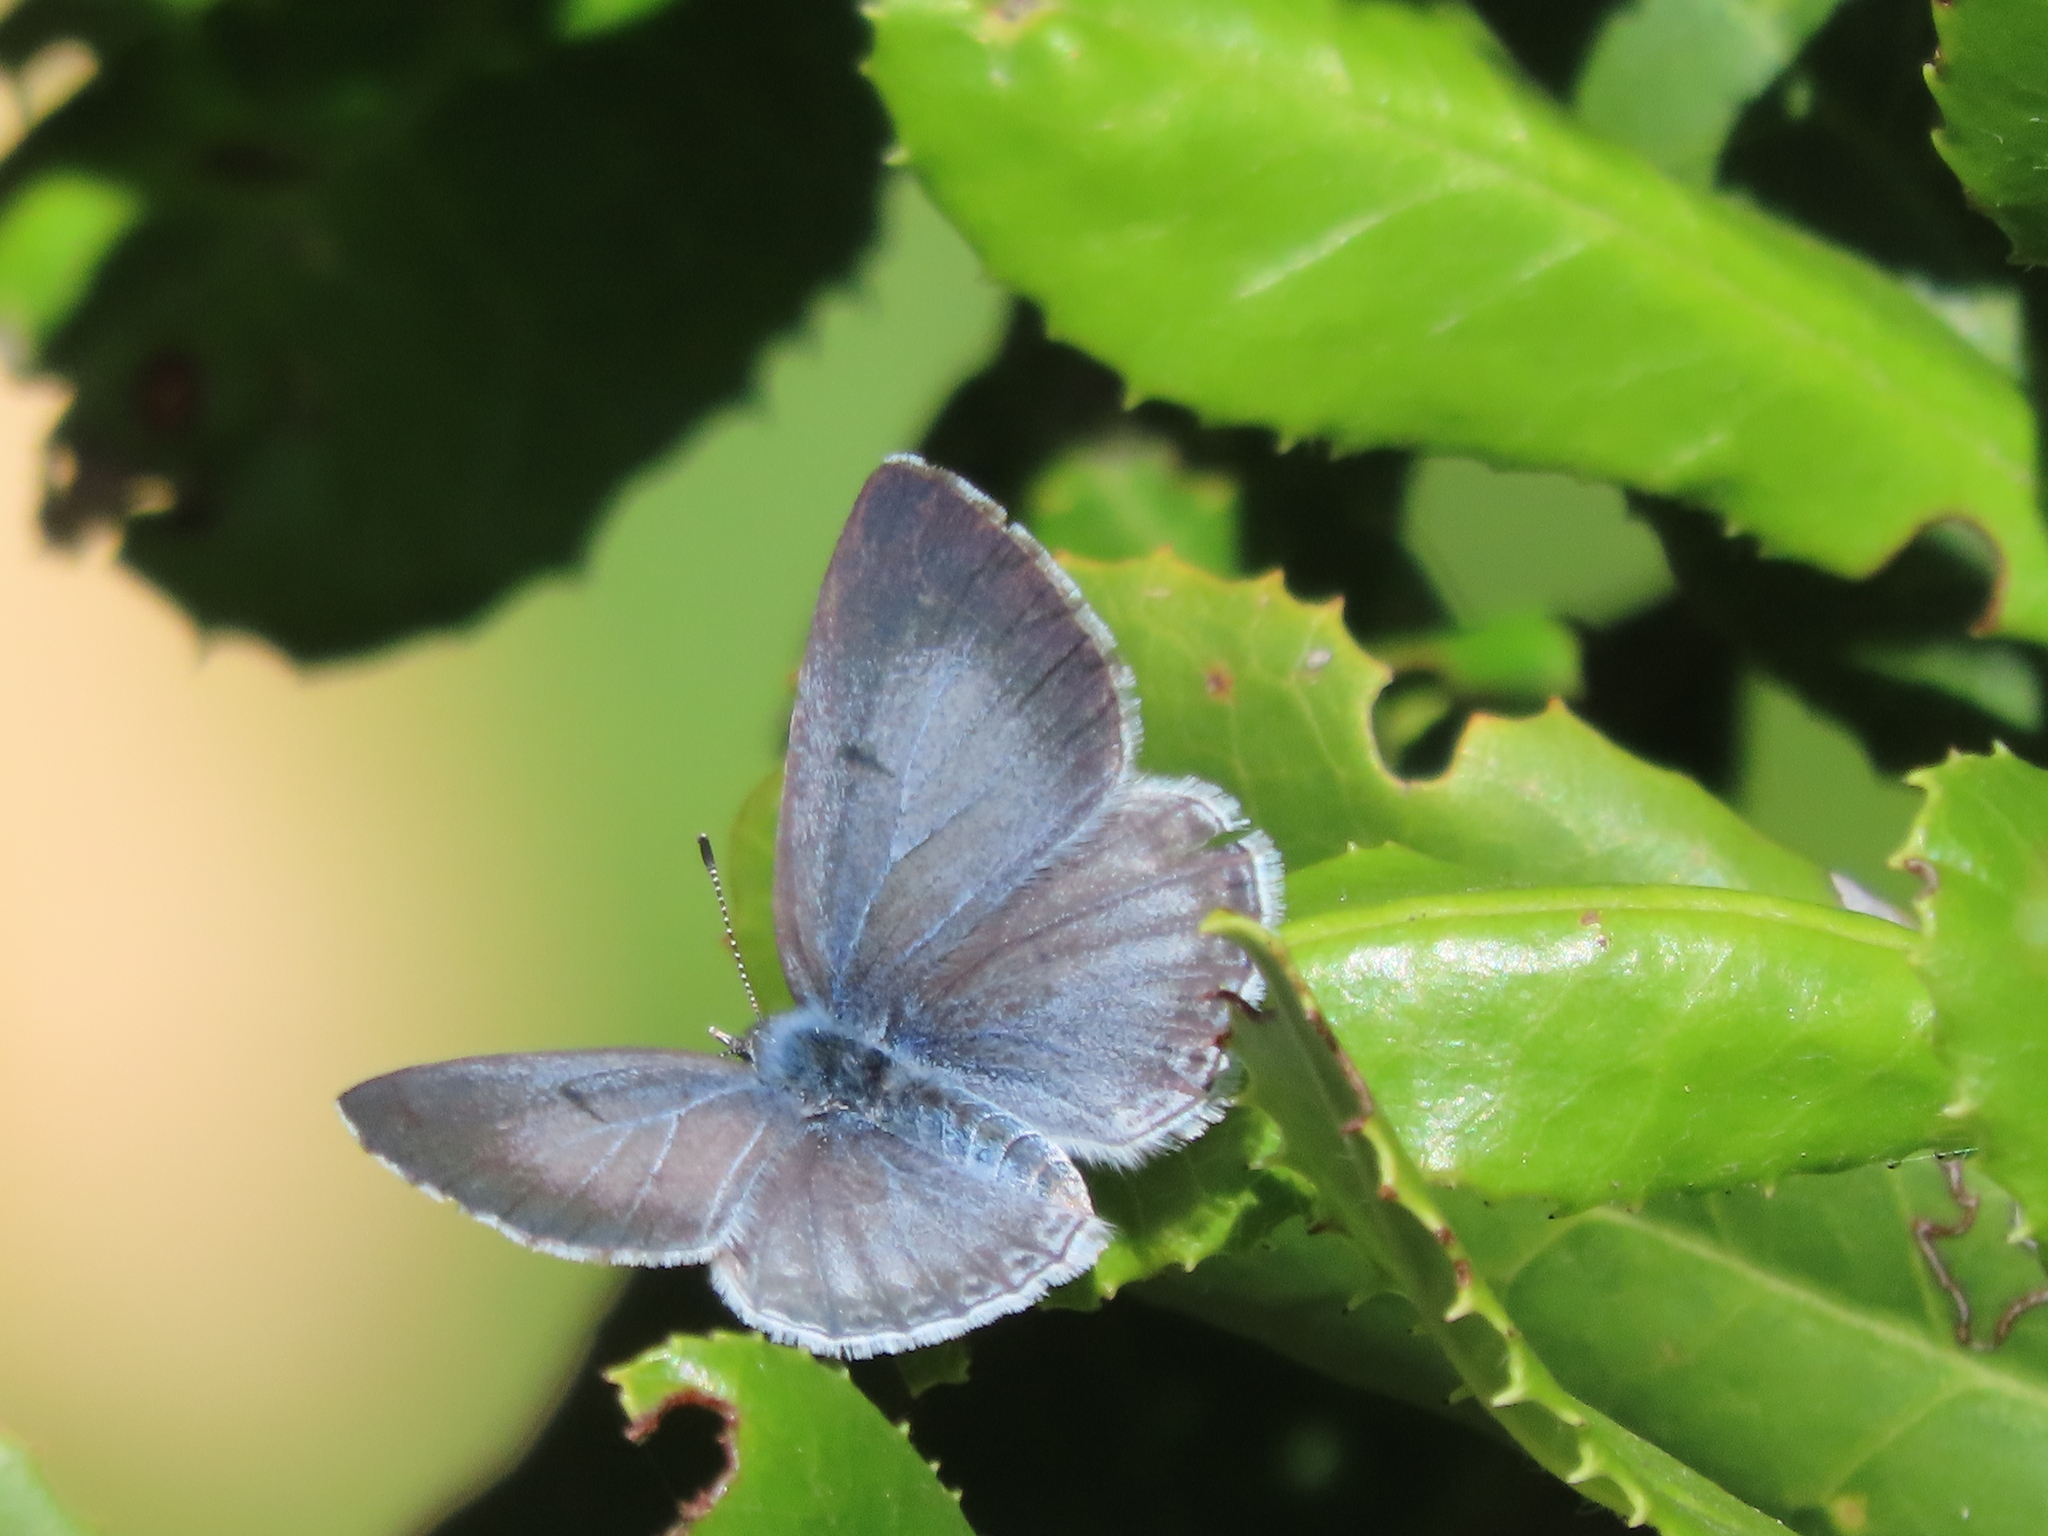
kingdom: Animalia
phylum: Arthropoda
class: Insecta
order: Lepidoptera
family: Lycaenidae
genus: Celastrina
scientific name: Celastrina ladon
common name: Spring azure
